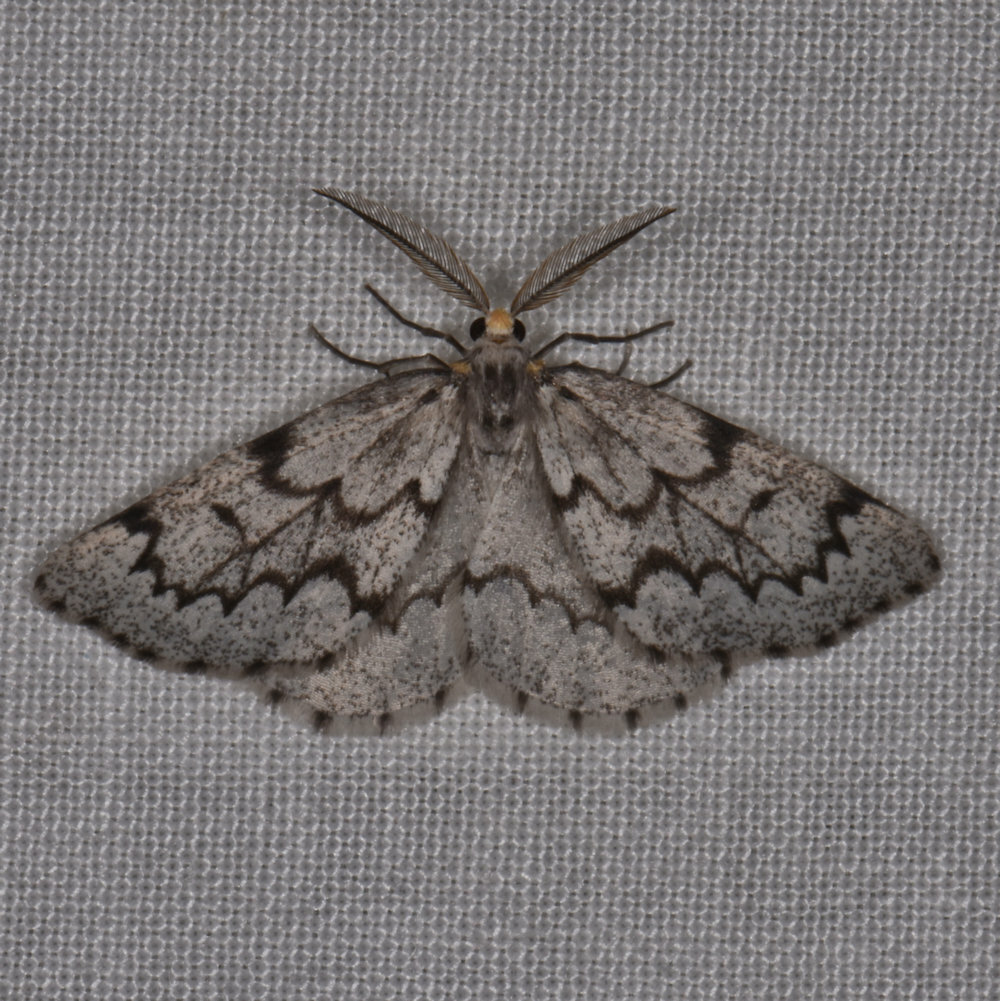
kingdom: Animalia
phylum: Arthropoda
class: Insecta
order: Lepidoptera
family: Geometridae
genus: Nepytia
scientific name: Nepytia canosaria
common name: False hemlock looper
